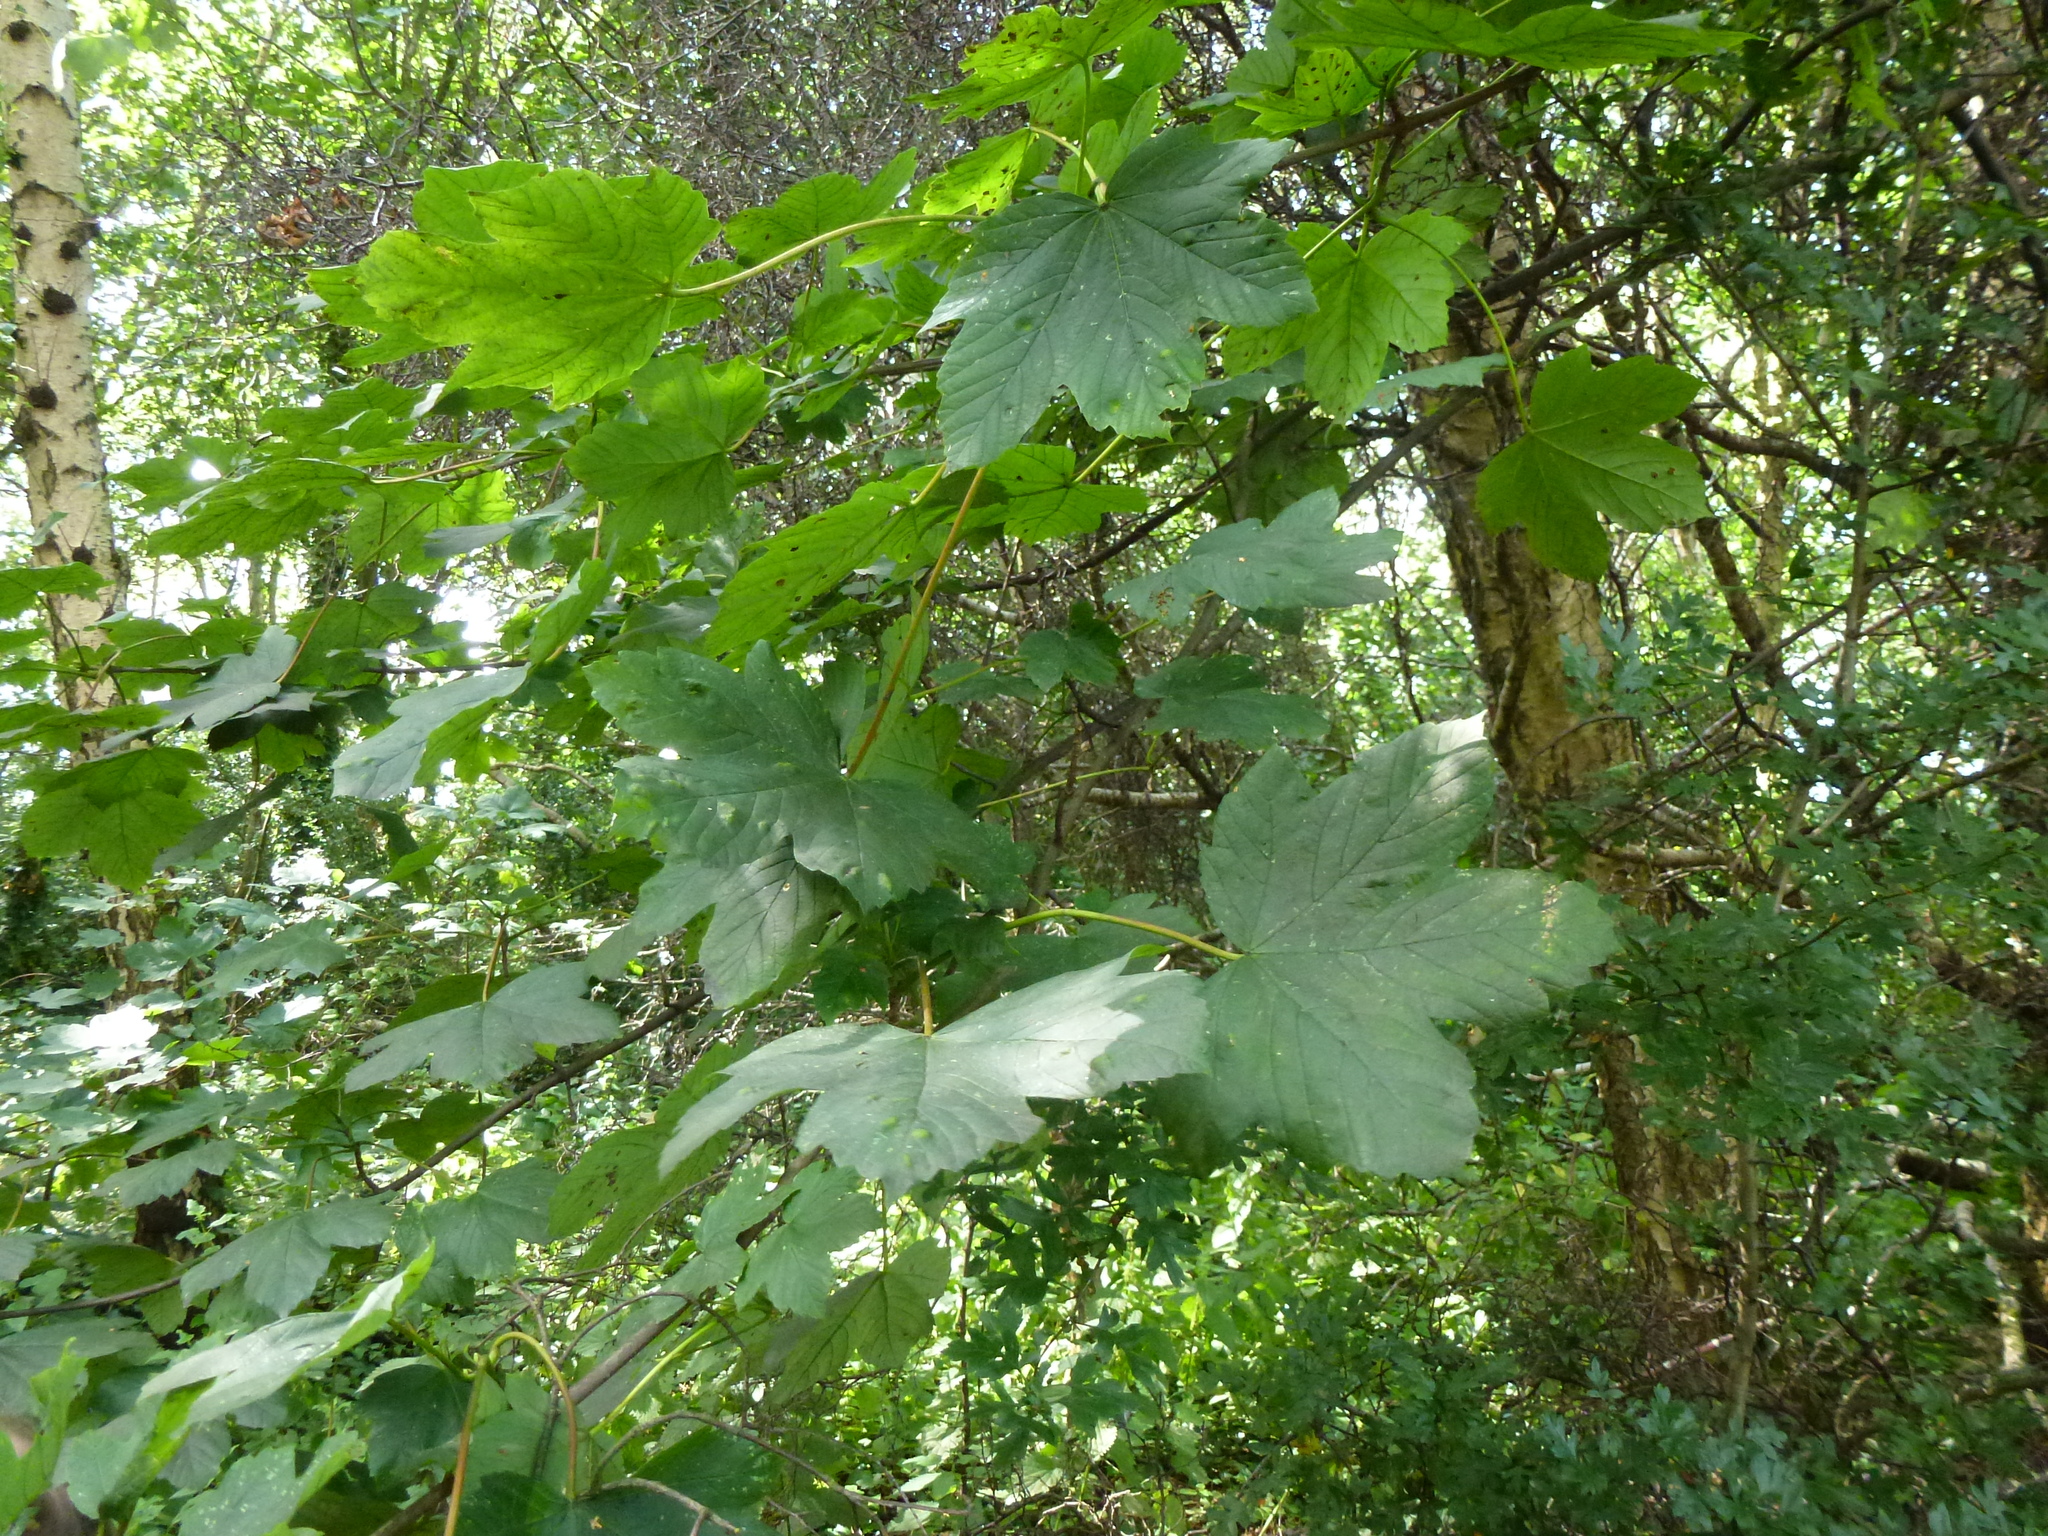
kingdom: Plantae
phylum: Tracheophyta
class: Magnoliopsida
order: Sapindales
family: Sapindaceae
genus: Acer
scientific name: Acer pseudoplatanus
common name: Sycamore
